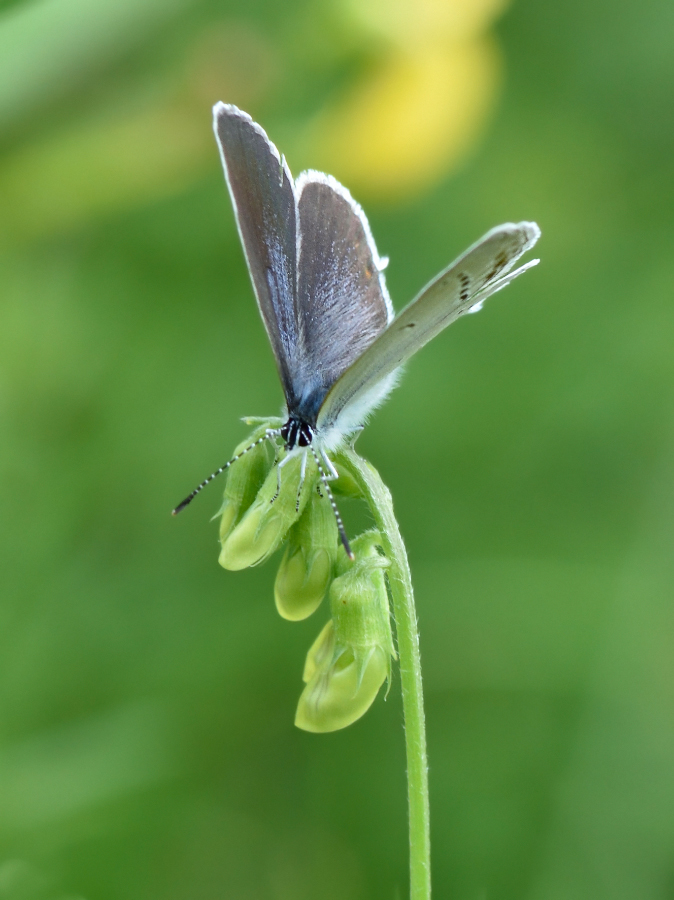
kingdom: Animalia
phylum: Arthropoda
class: Insecta
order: Lepidoptera
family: Lycaenidae
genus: Elkalyce
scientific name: Elkalyce argiades
